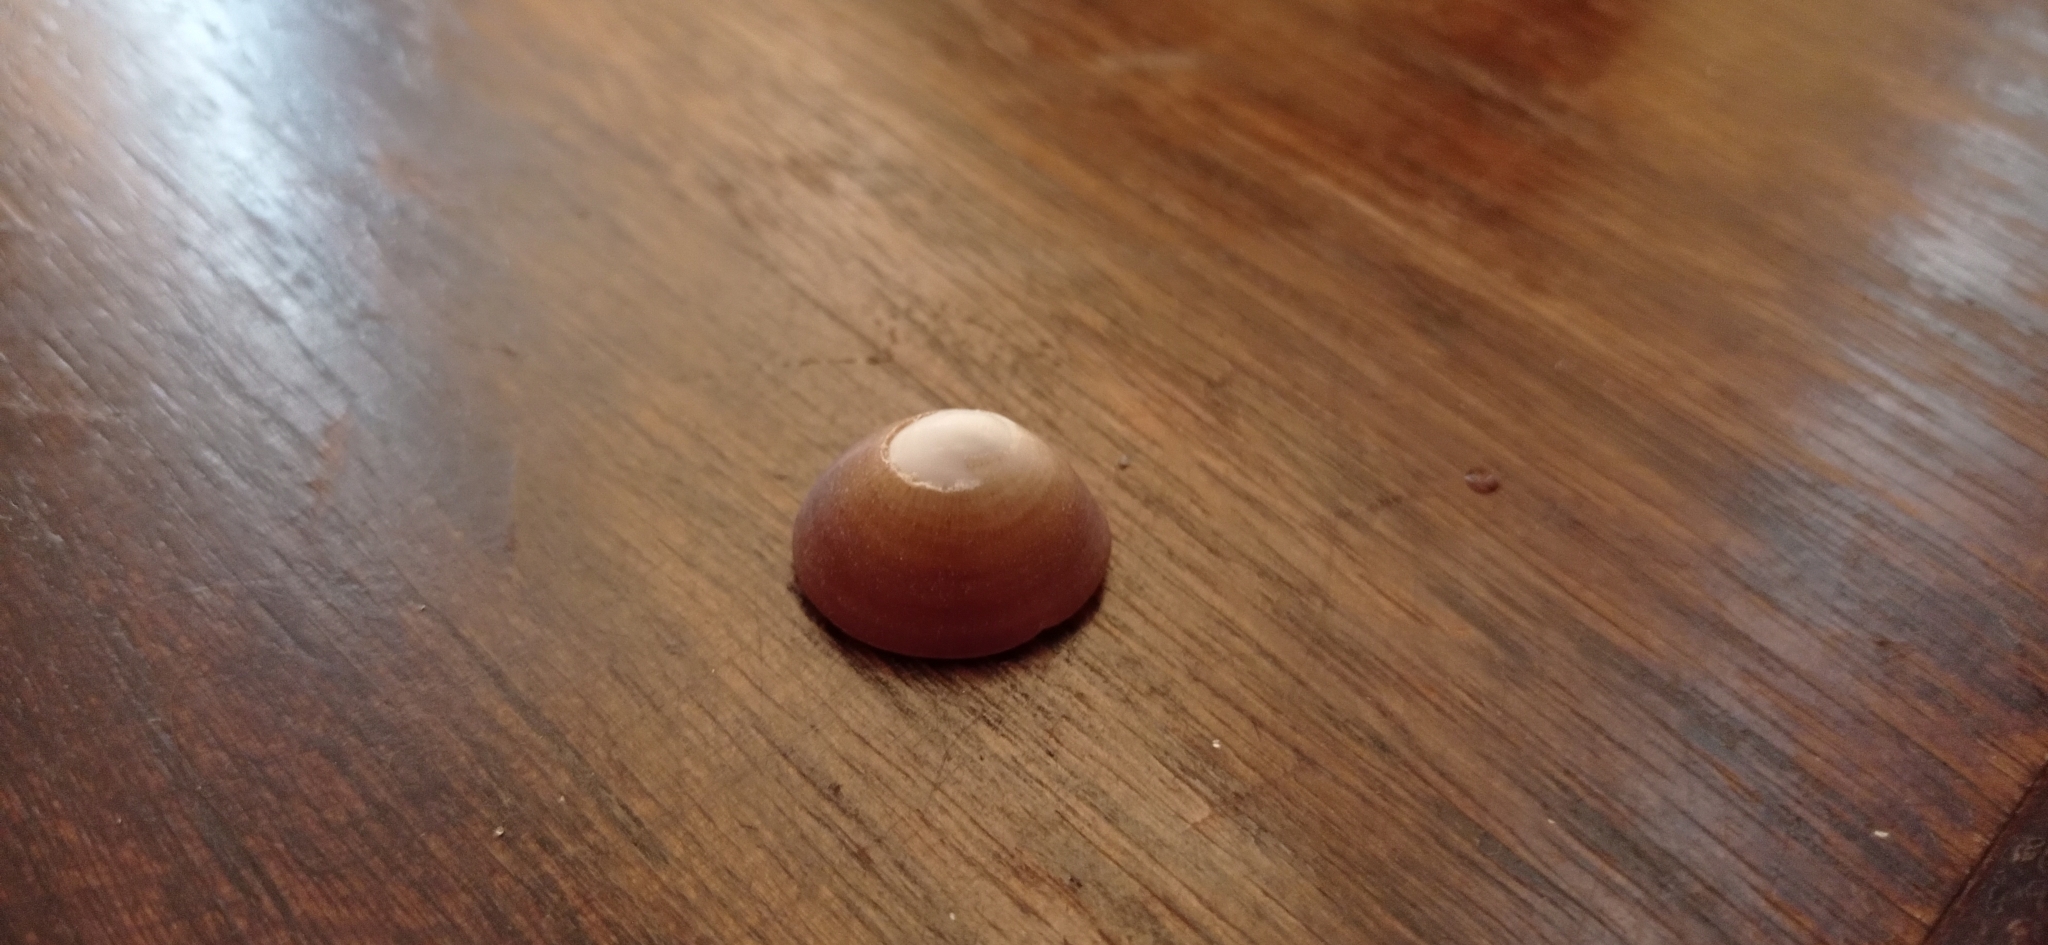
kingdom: Animalia
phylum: Mollusca
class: Gastropoda
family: Lottiidae
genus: Scurria
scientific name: Scurria scurra
